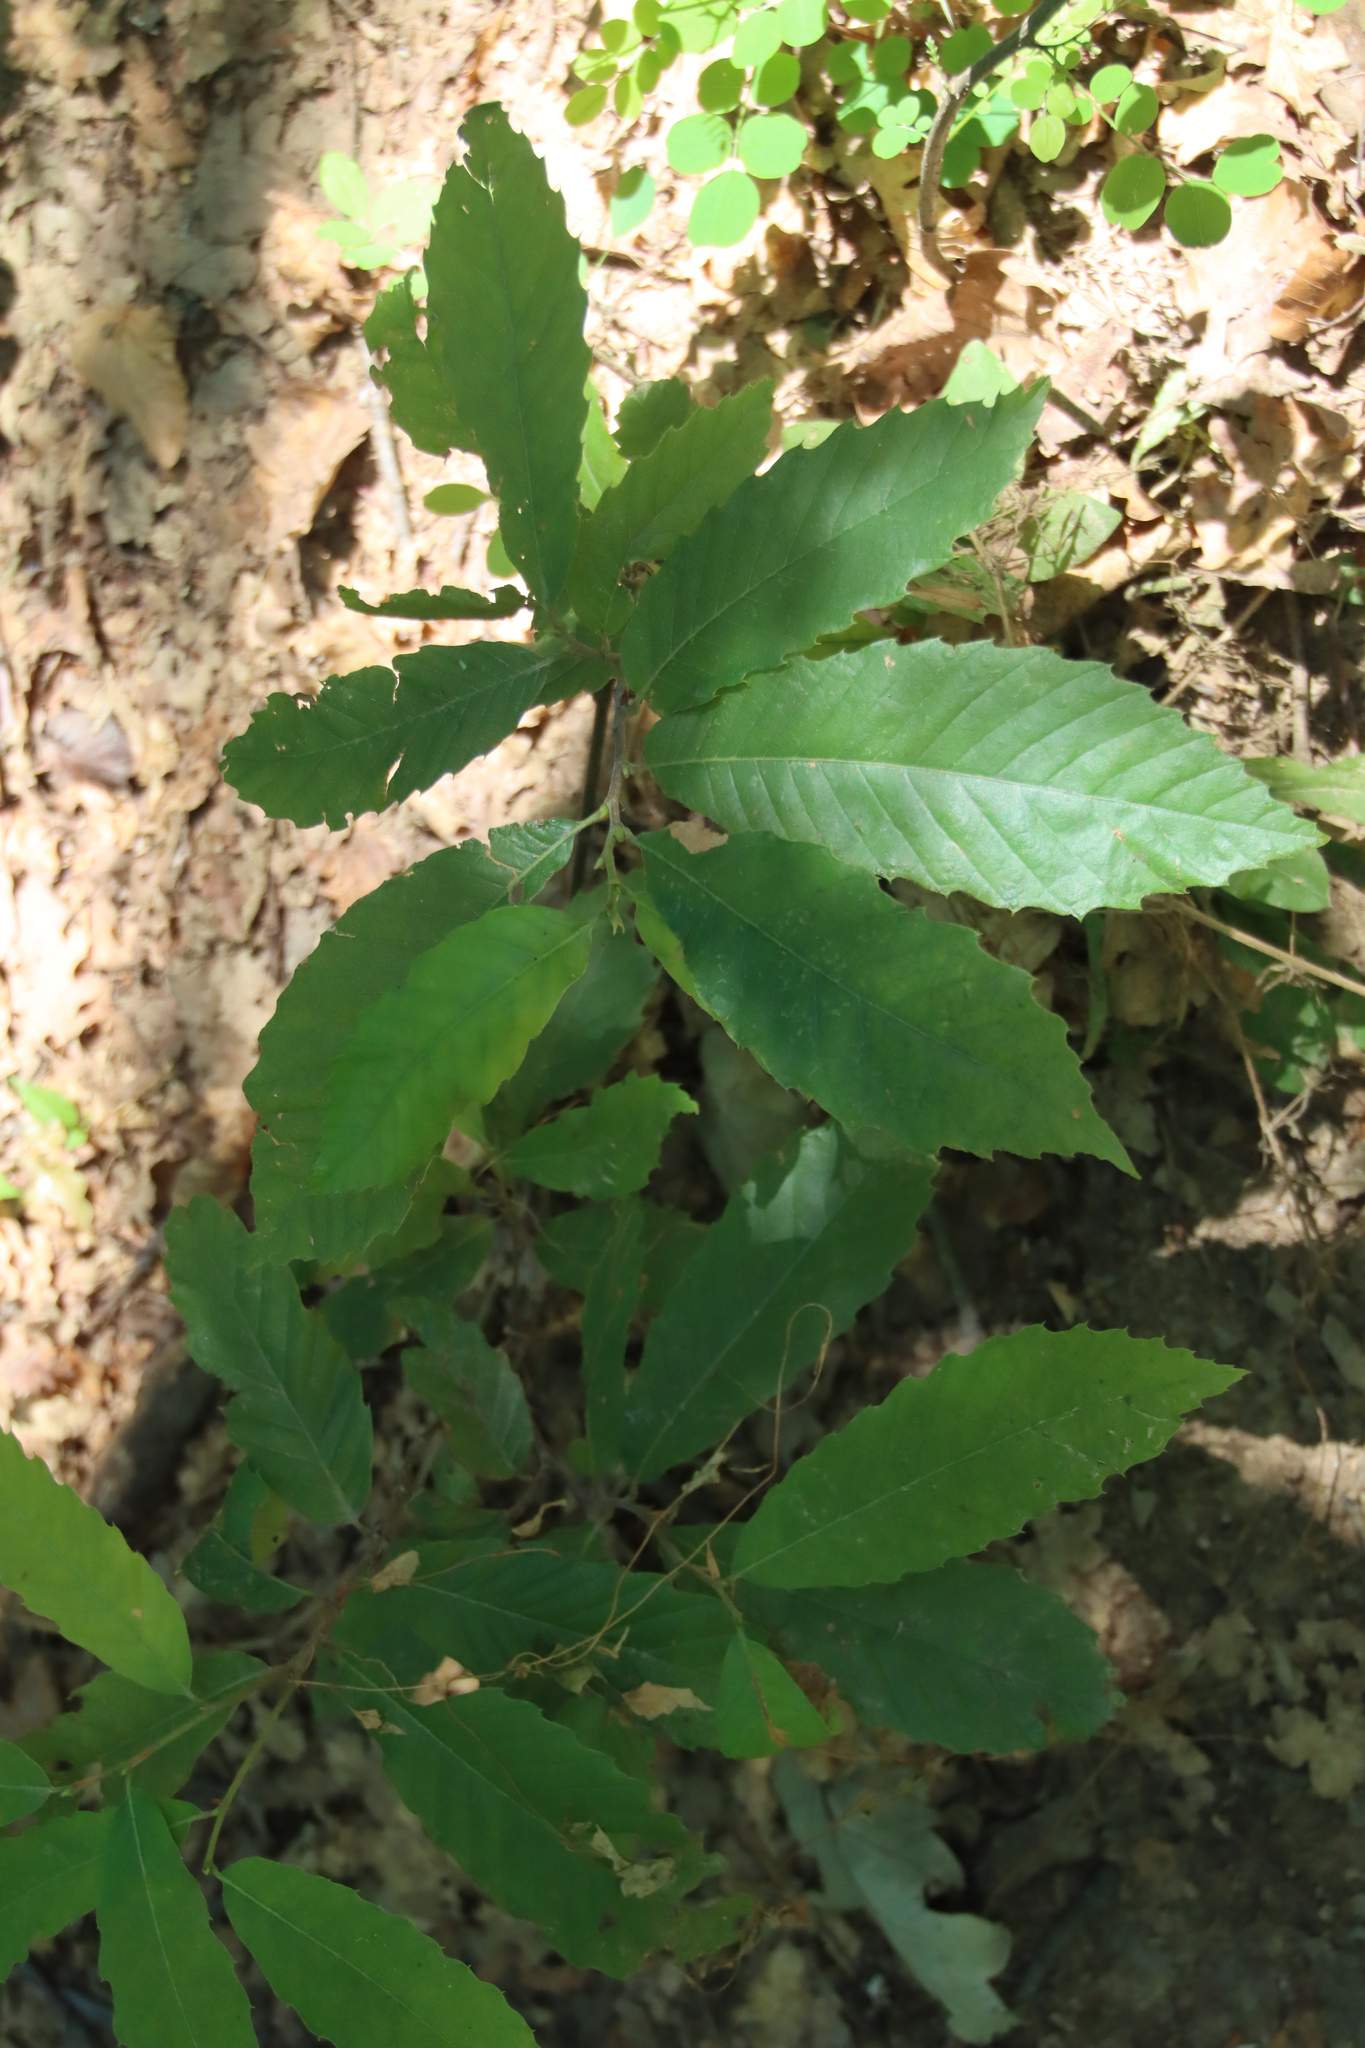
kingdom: Plantae
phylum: Tracheophyta
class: Magnoliopsida
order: Fagales
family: Fagaceae
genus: Castanea
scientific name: Castanea sativa
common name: Sweet chestnut
